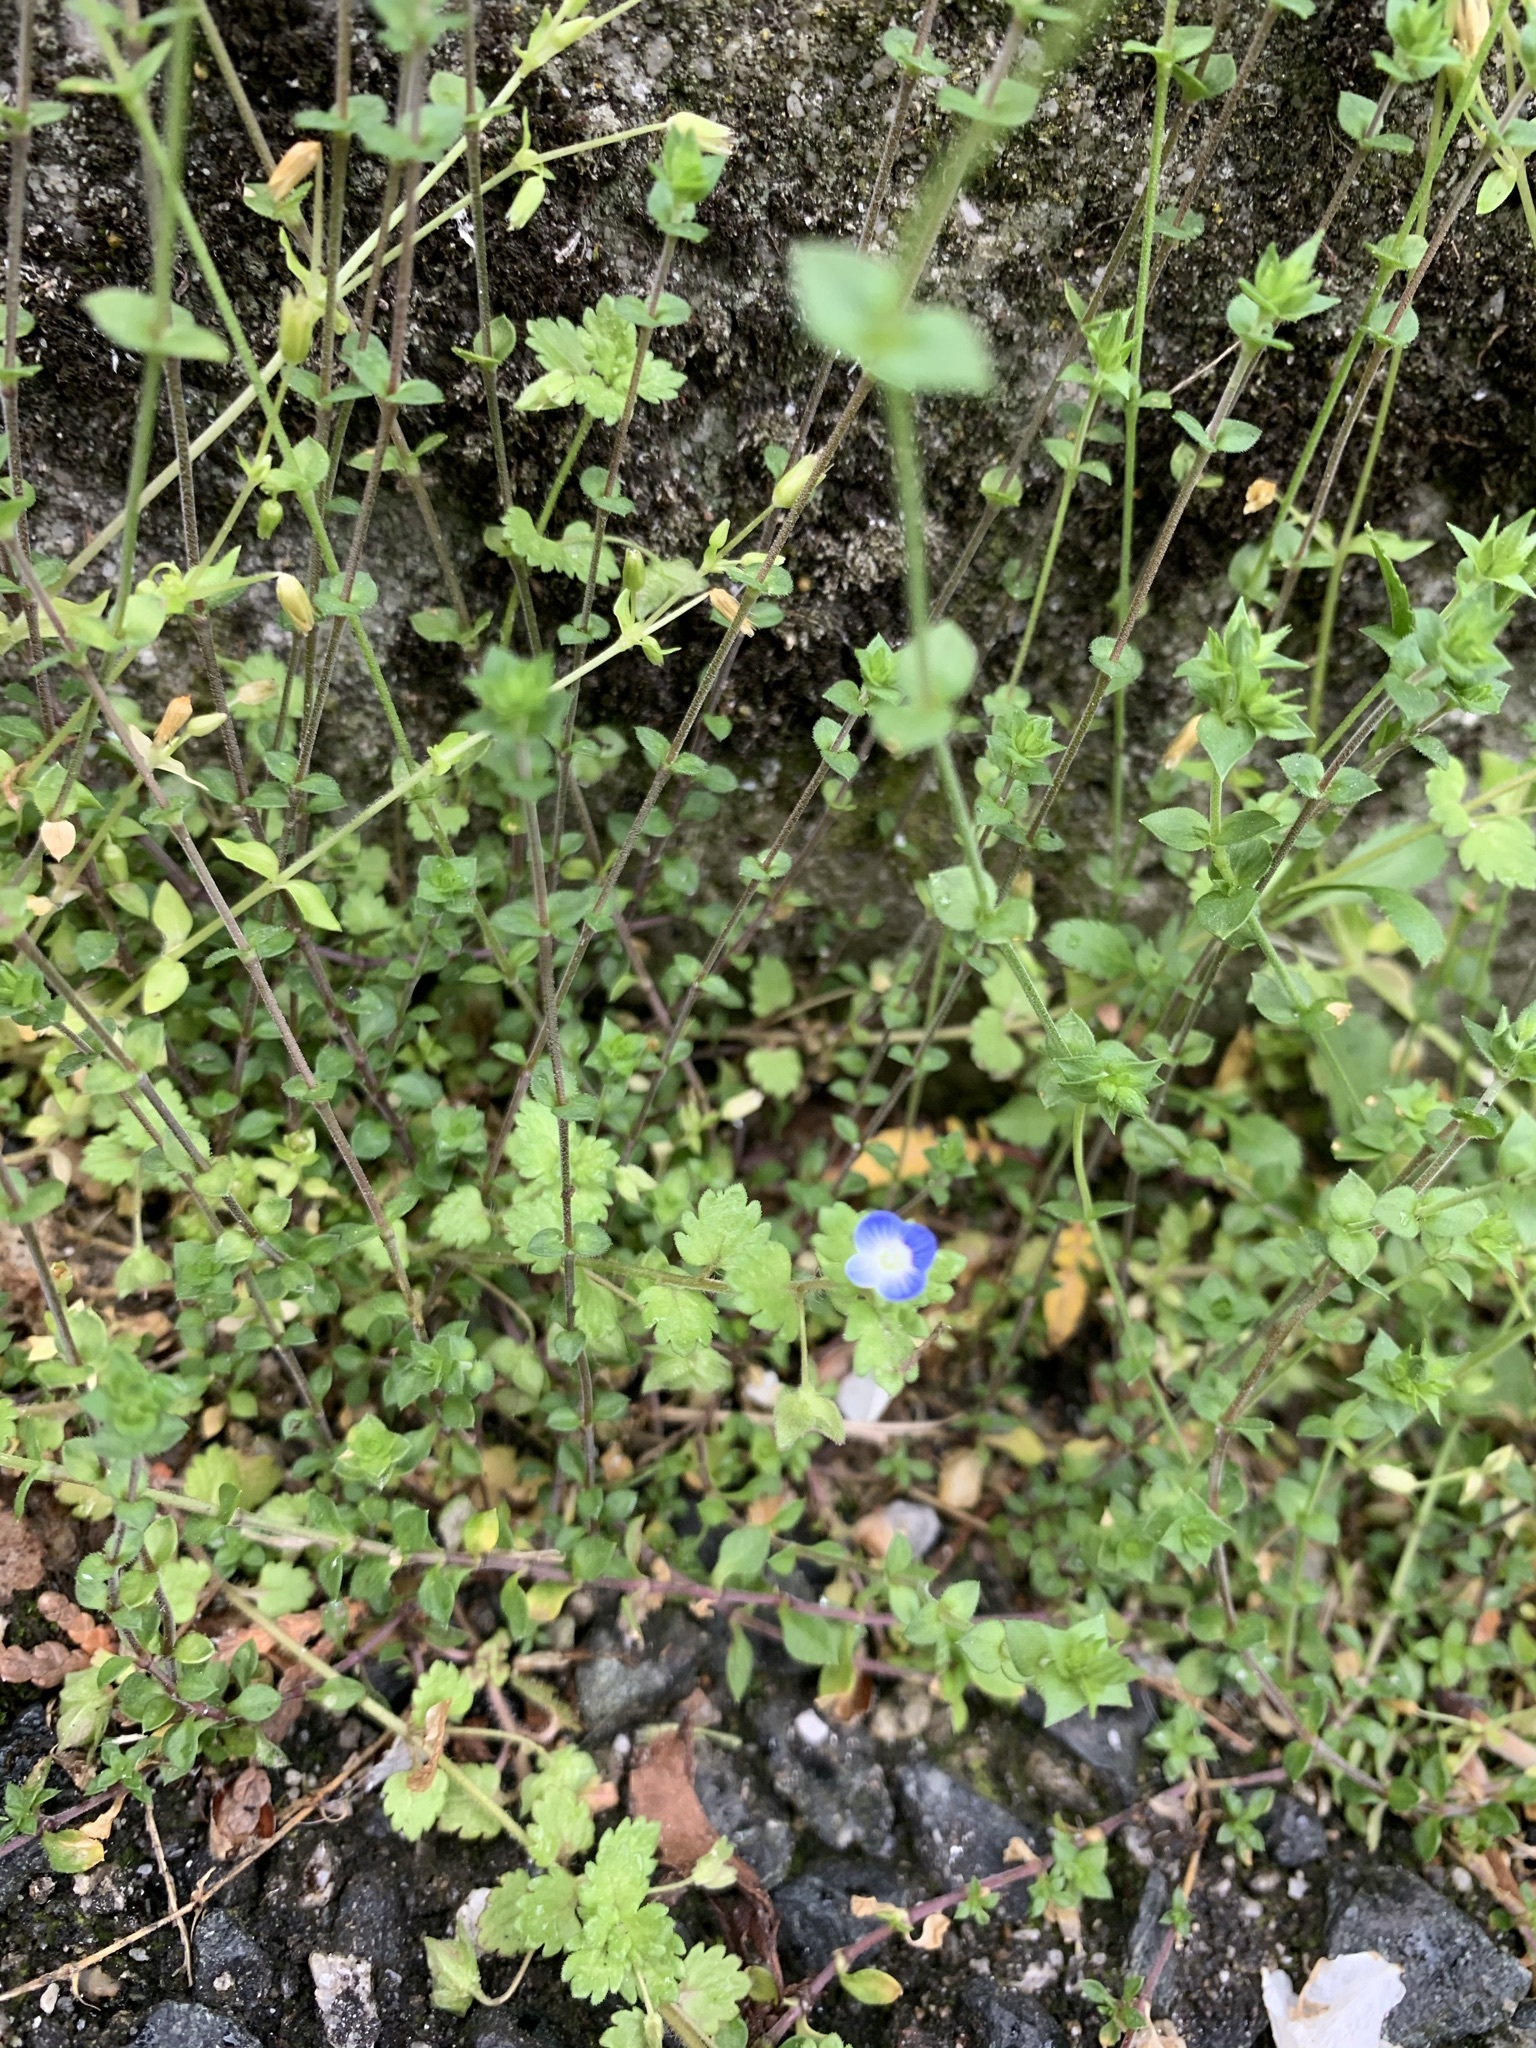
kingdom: Plantae
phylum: Tracheophyta
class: Magnoliopsida
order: Lamiales
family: Plantaginaceae
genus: Veronica
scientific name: Veronica persica
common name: Common field-speedwell
